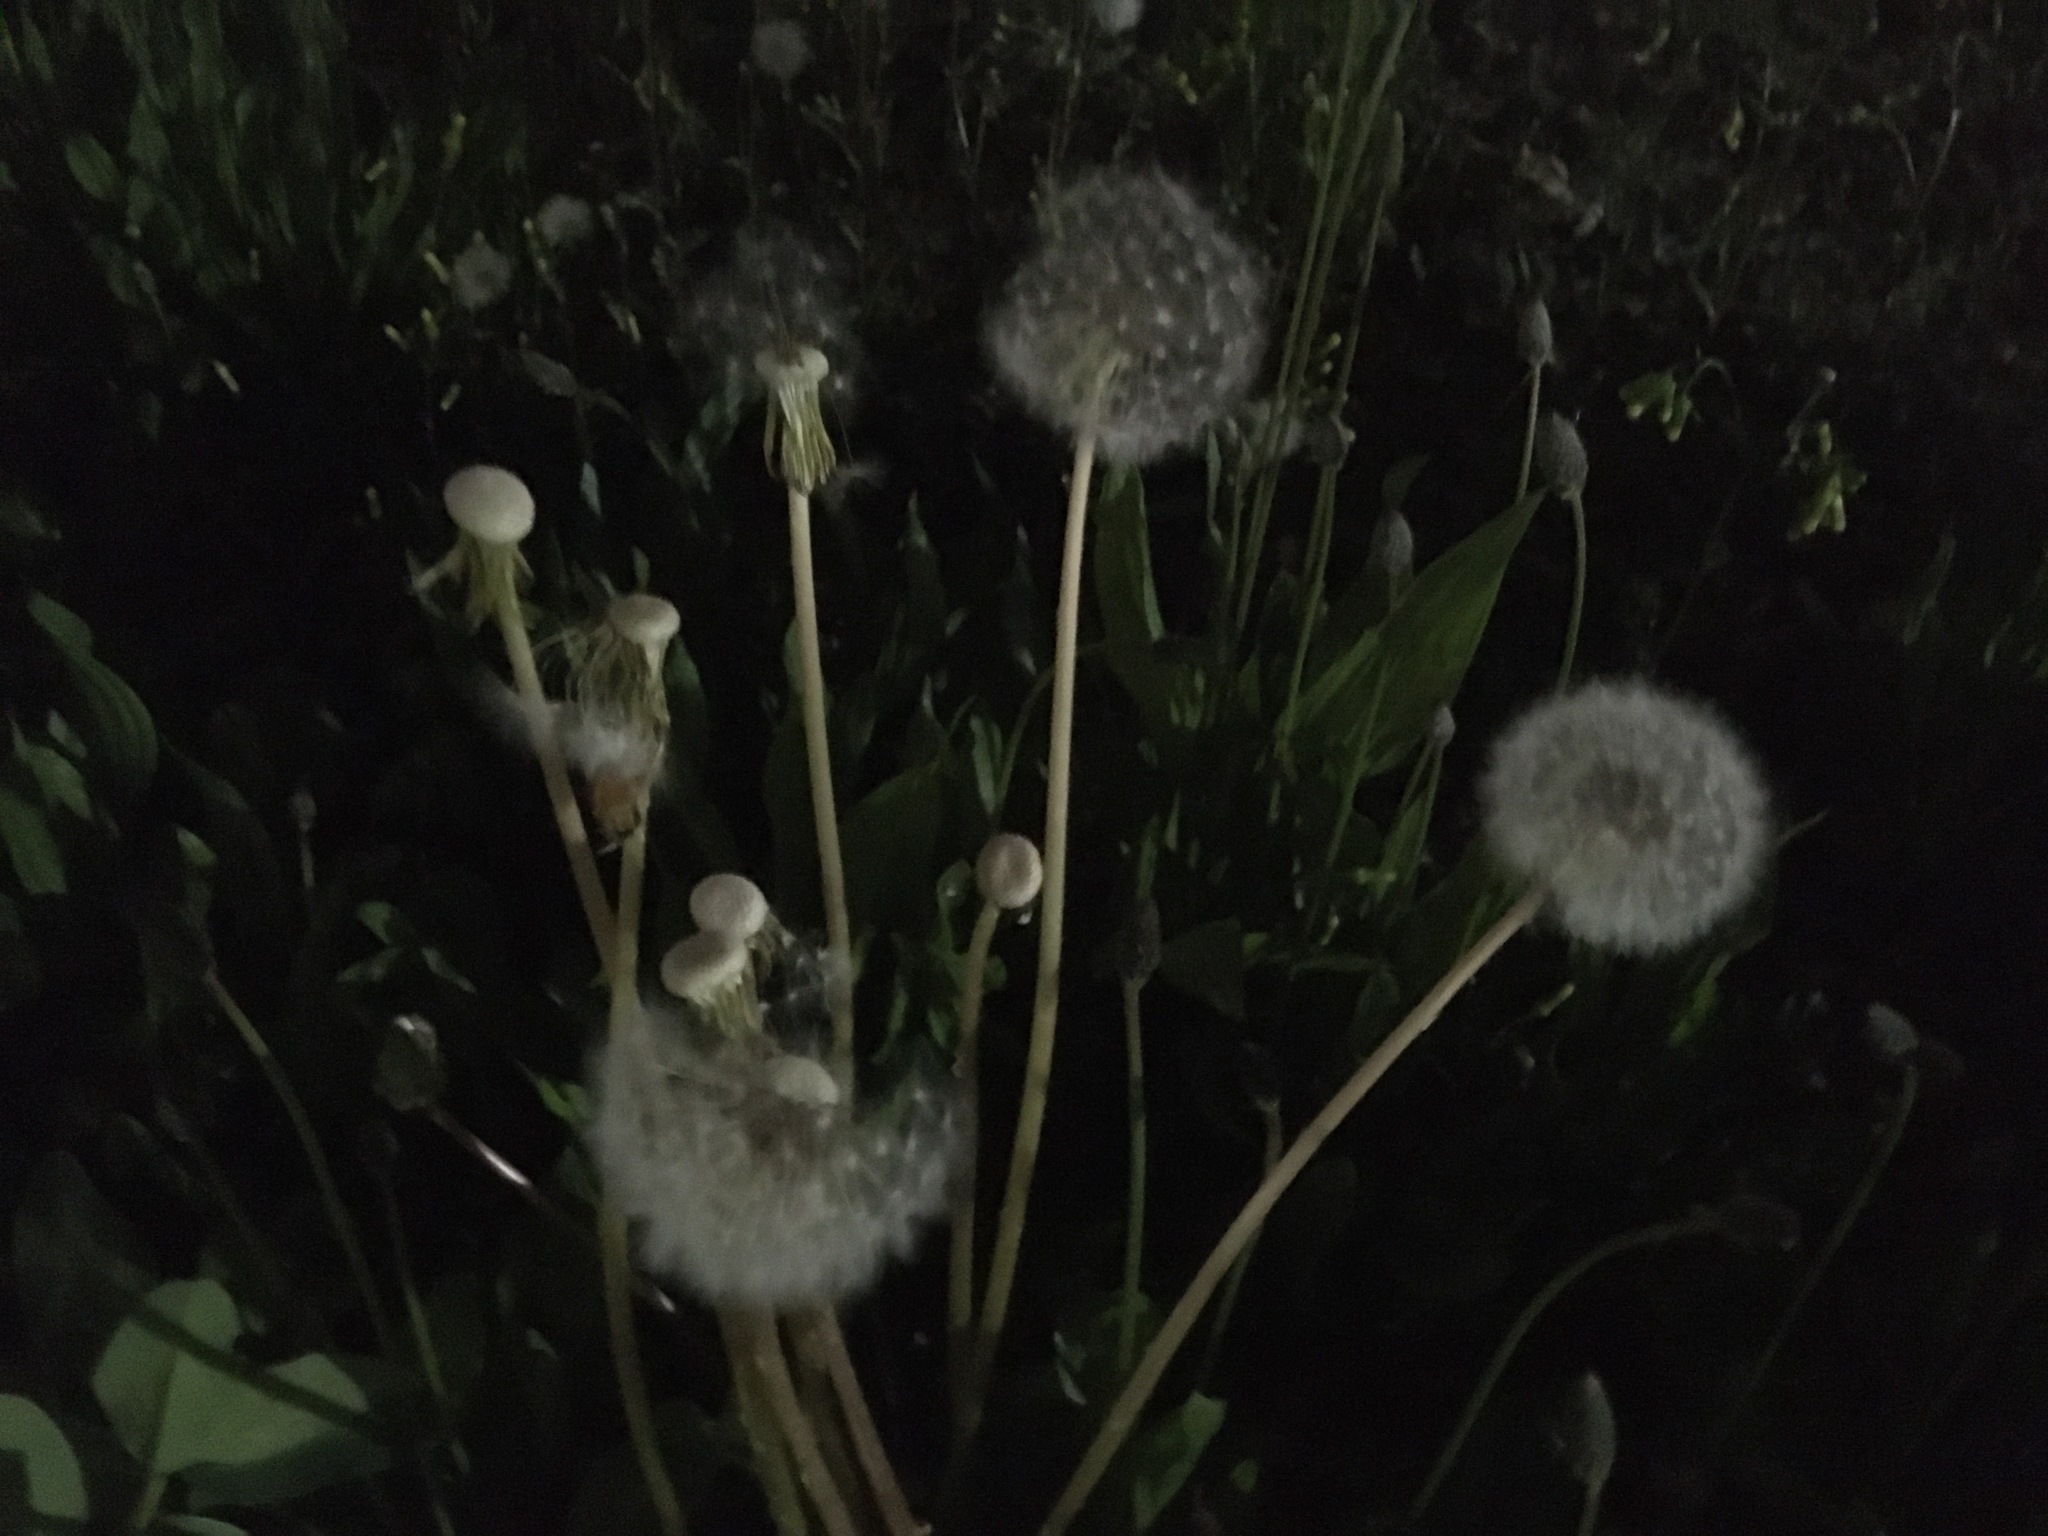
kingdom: Plantae
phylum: Tracheophyta
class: Magnoliopsida
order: Asterales
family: Asteraceae
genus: Taraxacum
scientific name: Taraxacum officinale
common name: Common dandelion
